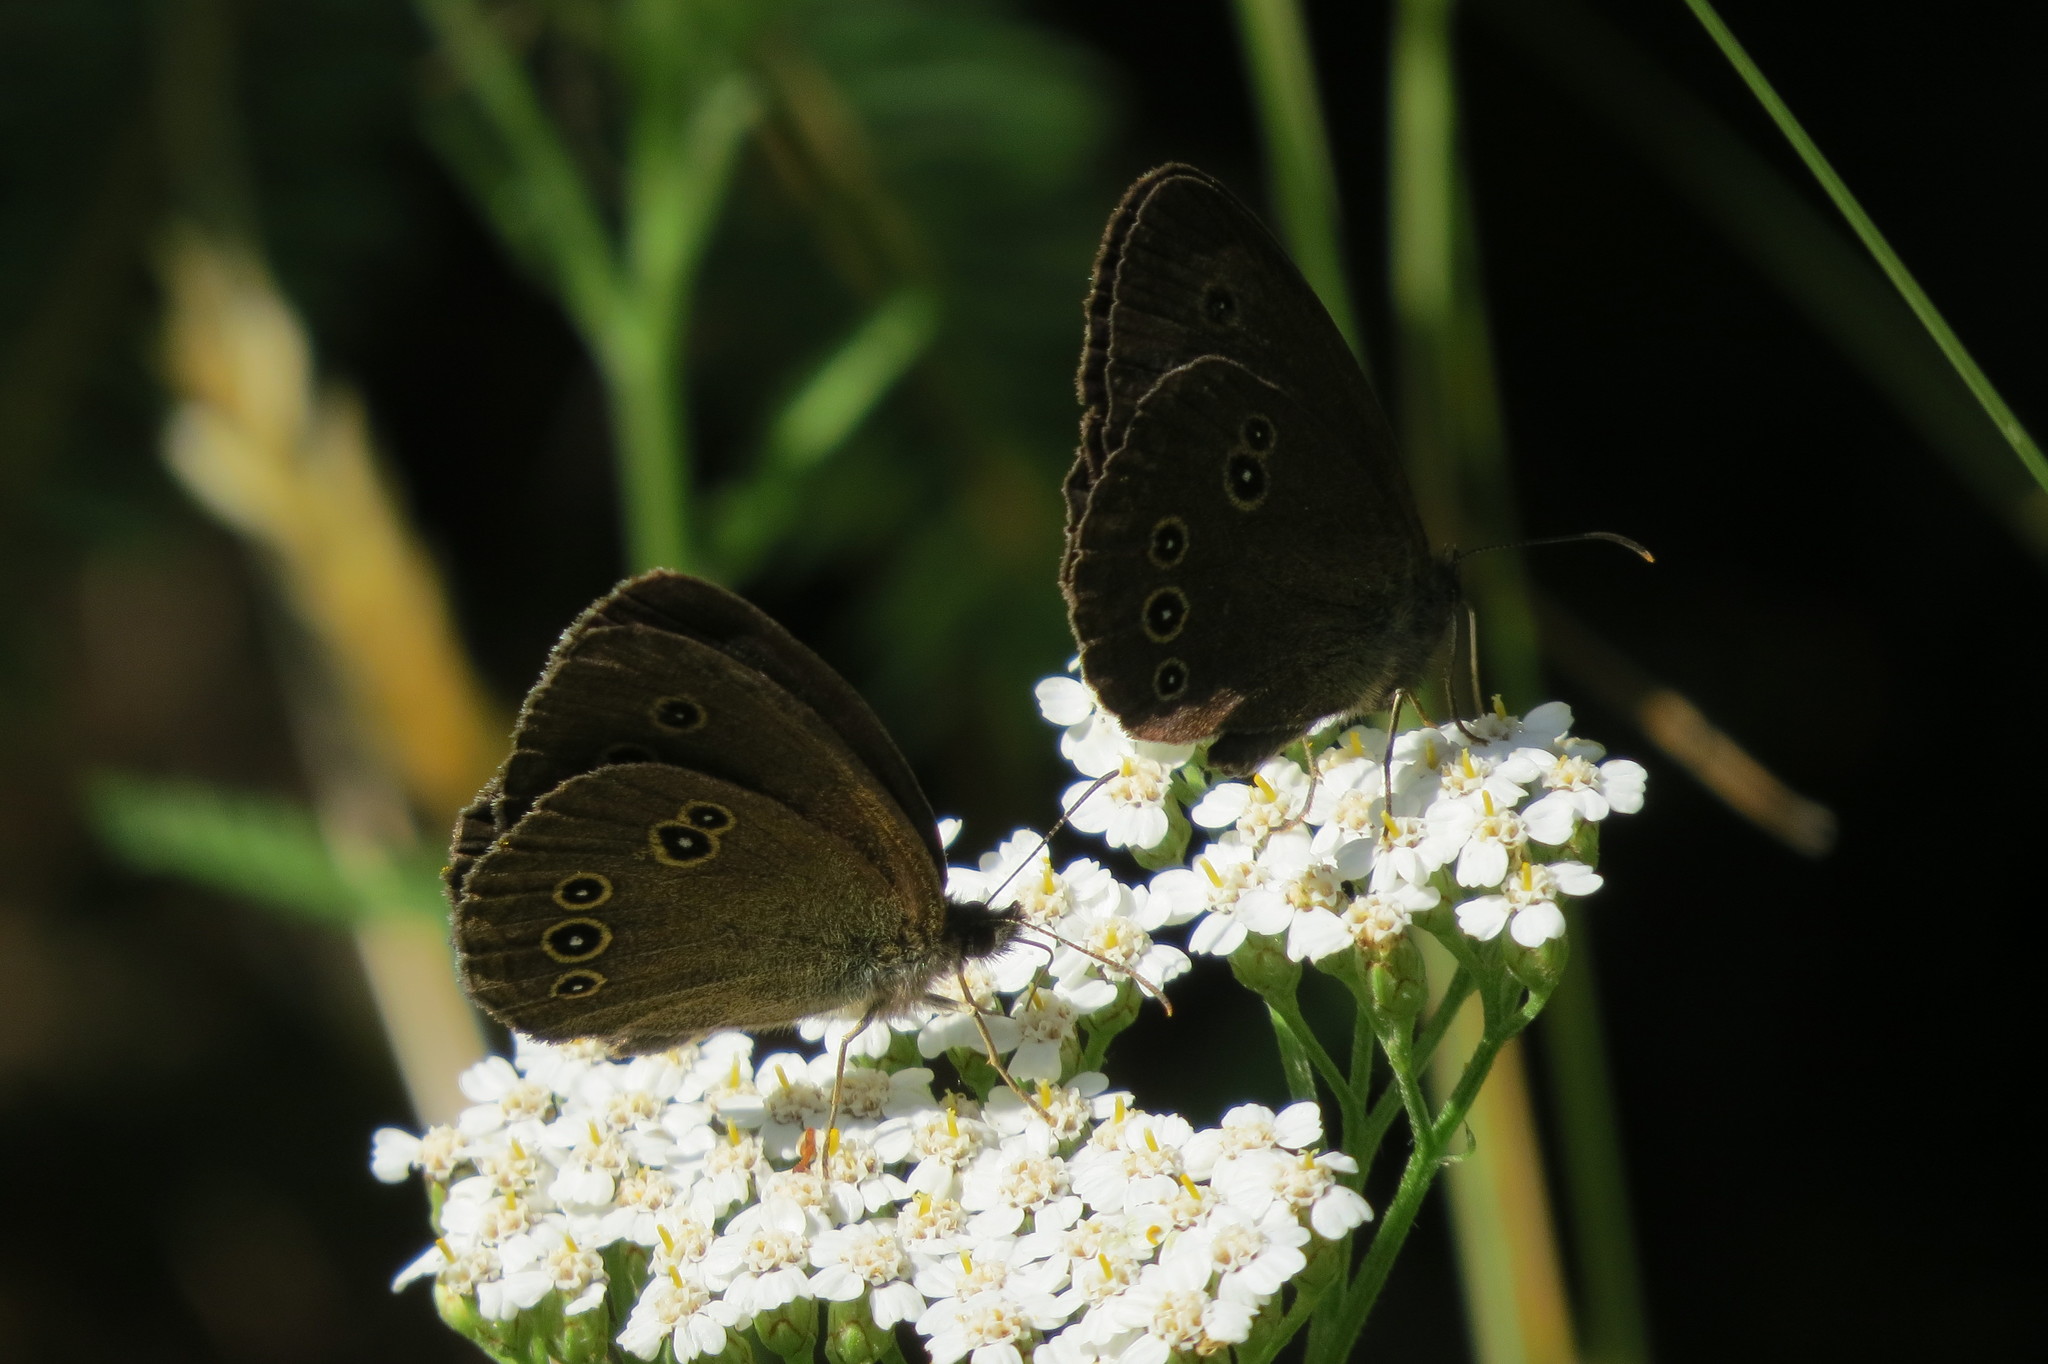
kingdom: Animalia
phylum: Arthropoda
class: Insecta
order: Lepidoptera
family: Nymphalidae
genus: Aphantopus
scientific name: Aphantopus hyperantus
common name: Ringlet
